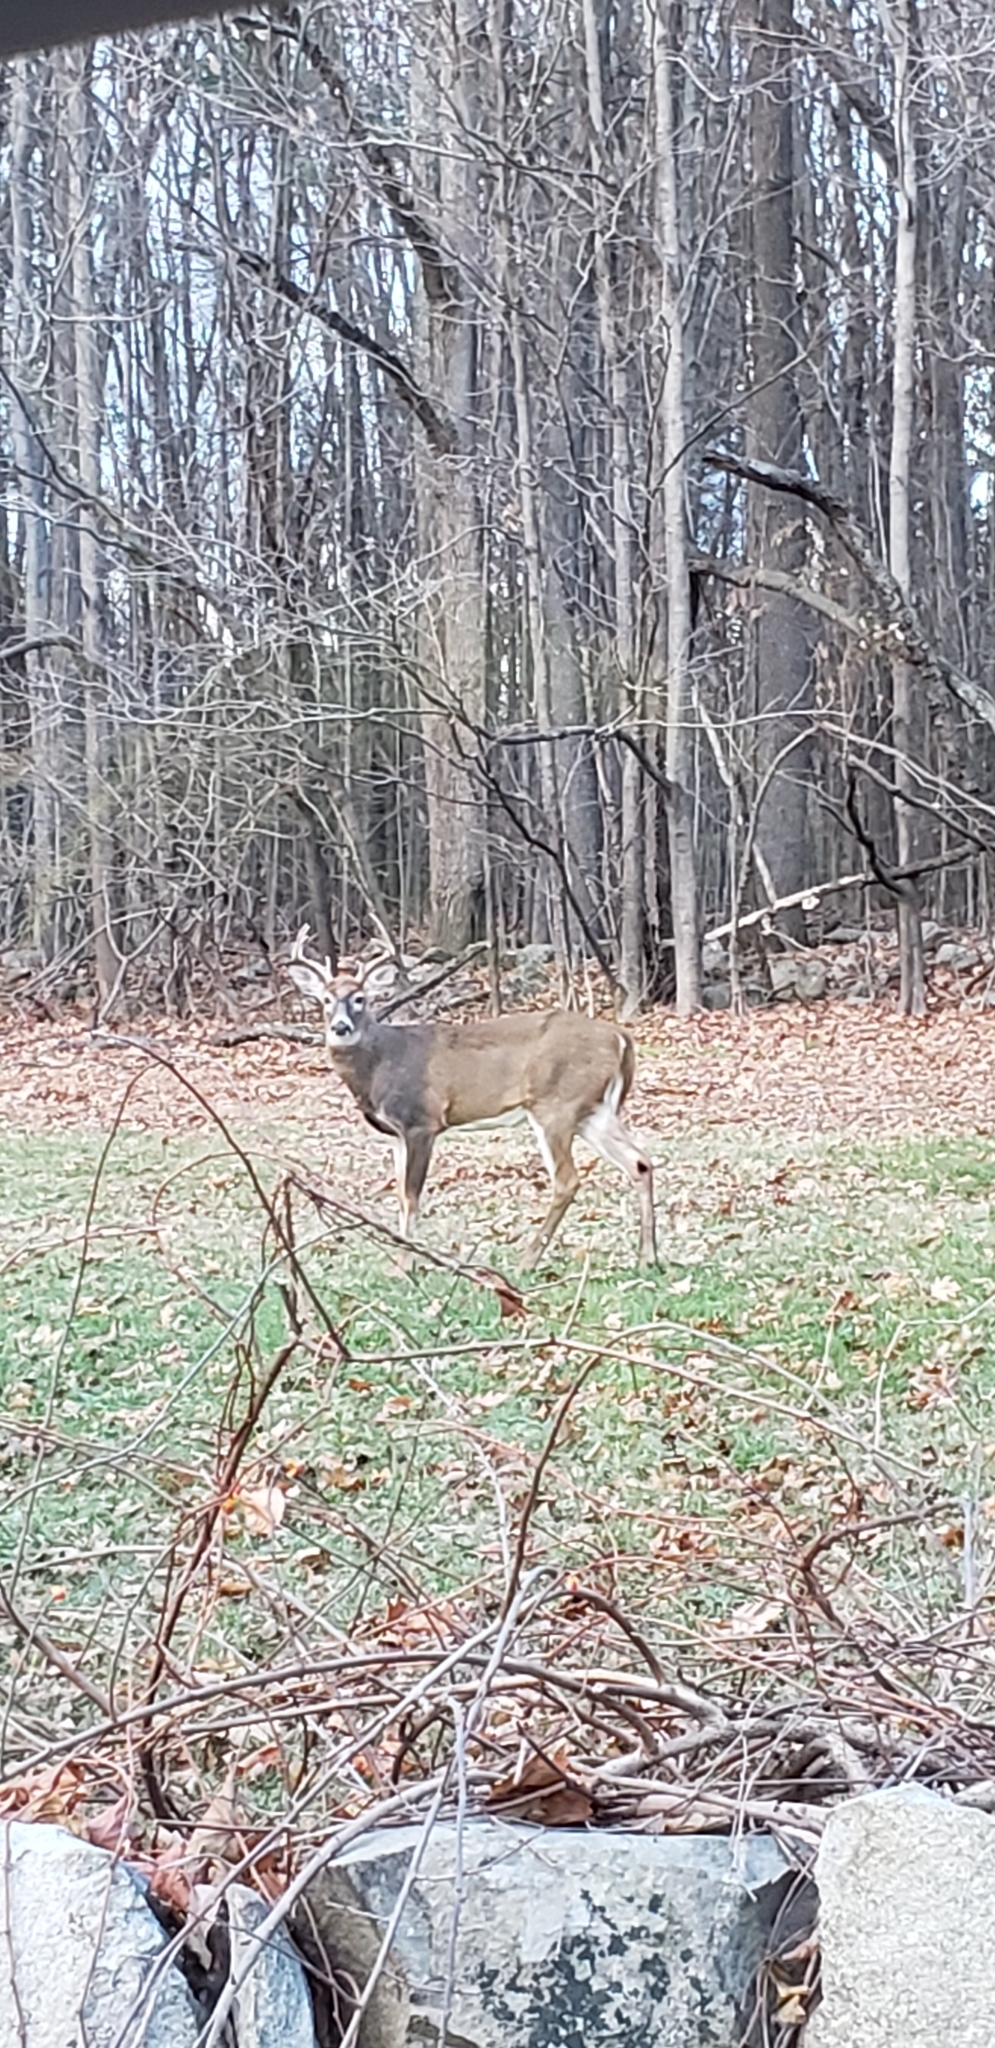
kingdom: Animalia
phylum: Chordata
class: Mammalia
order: Artiodactyla
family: Cervidae
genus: Odocoileus
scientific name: Odocoileus virginianus
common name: White-tailed deer
